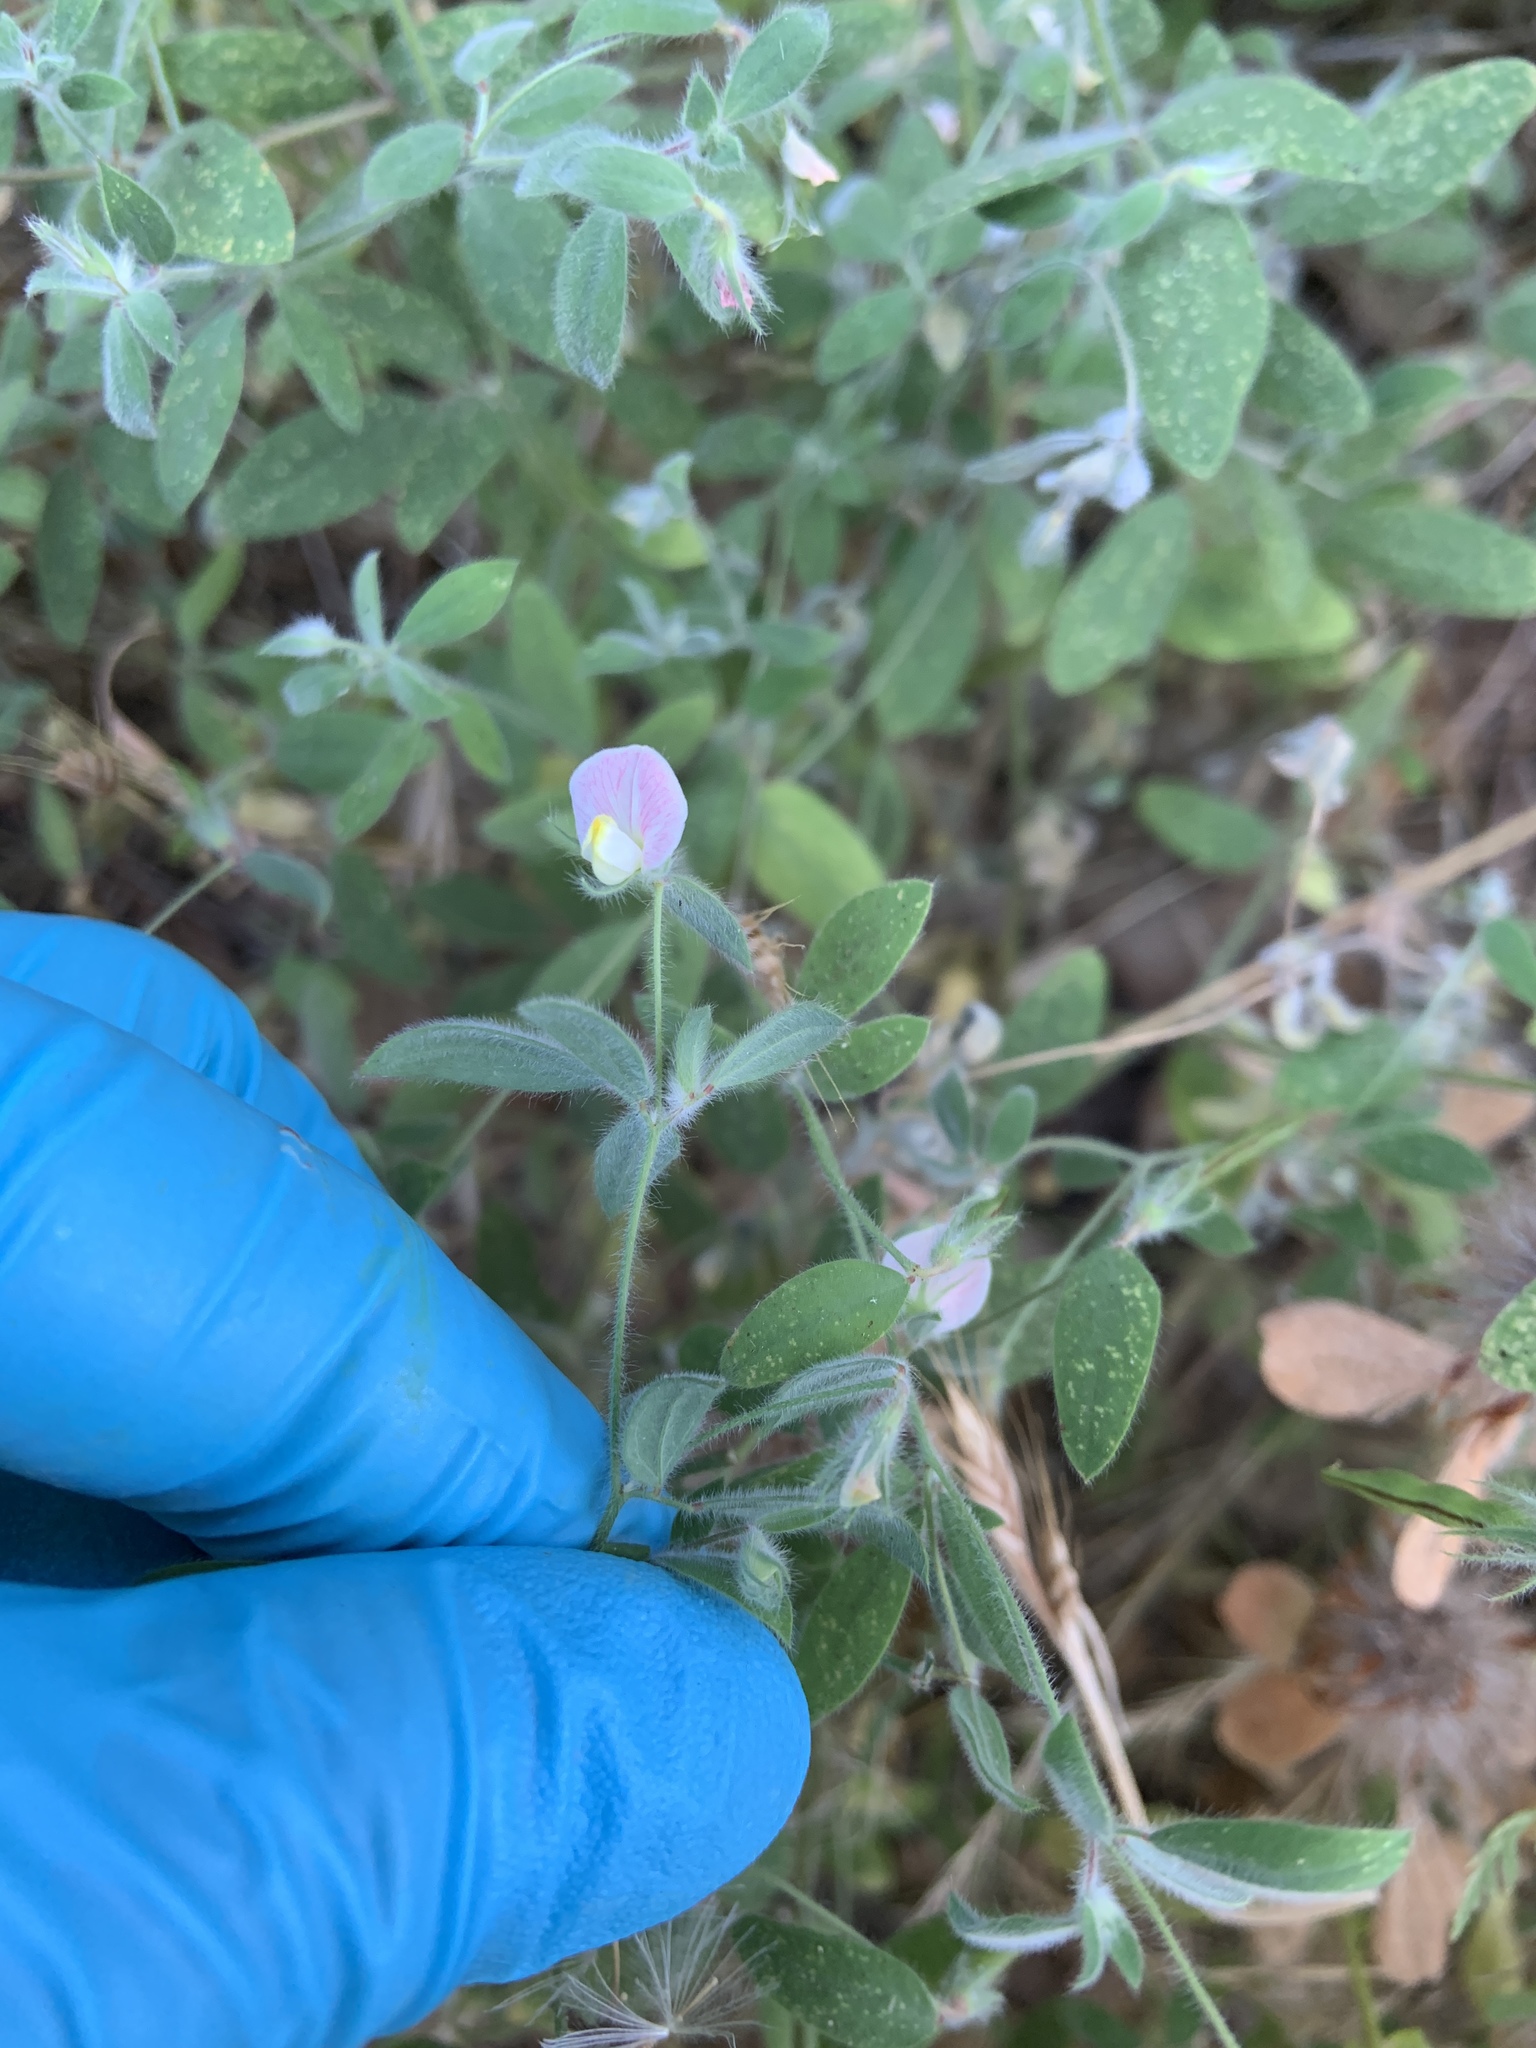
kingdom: Plantae
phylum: Tracheophyta
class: Magnoliopsida
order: Fabales
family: Fabaceae
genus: Acmispon
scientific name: Acmispon americanus
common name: American bird's-foot trefoil
